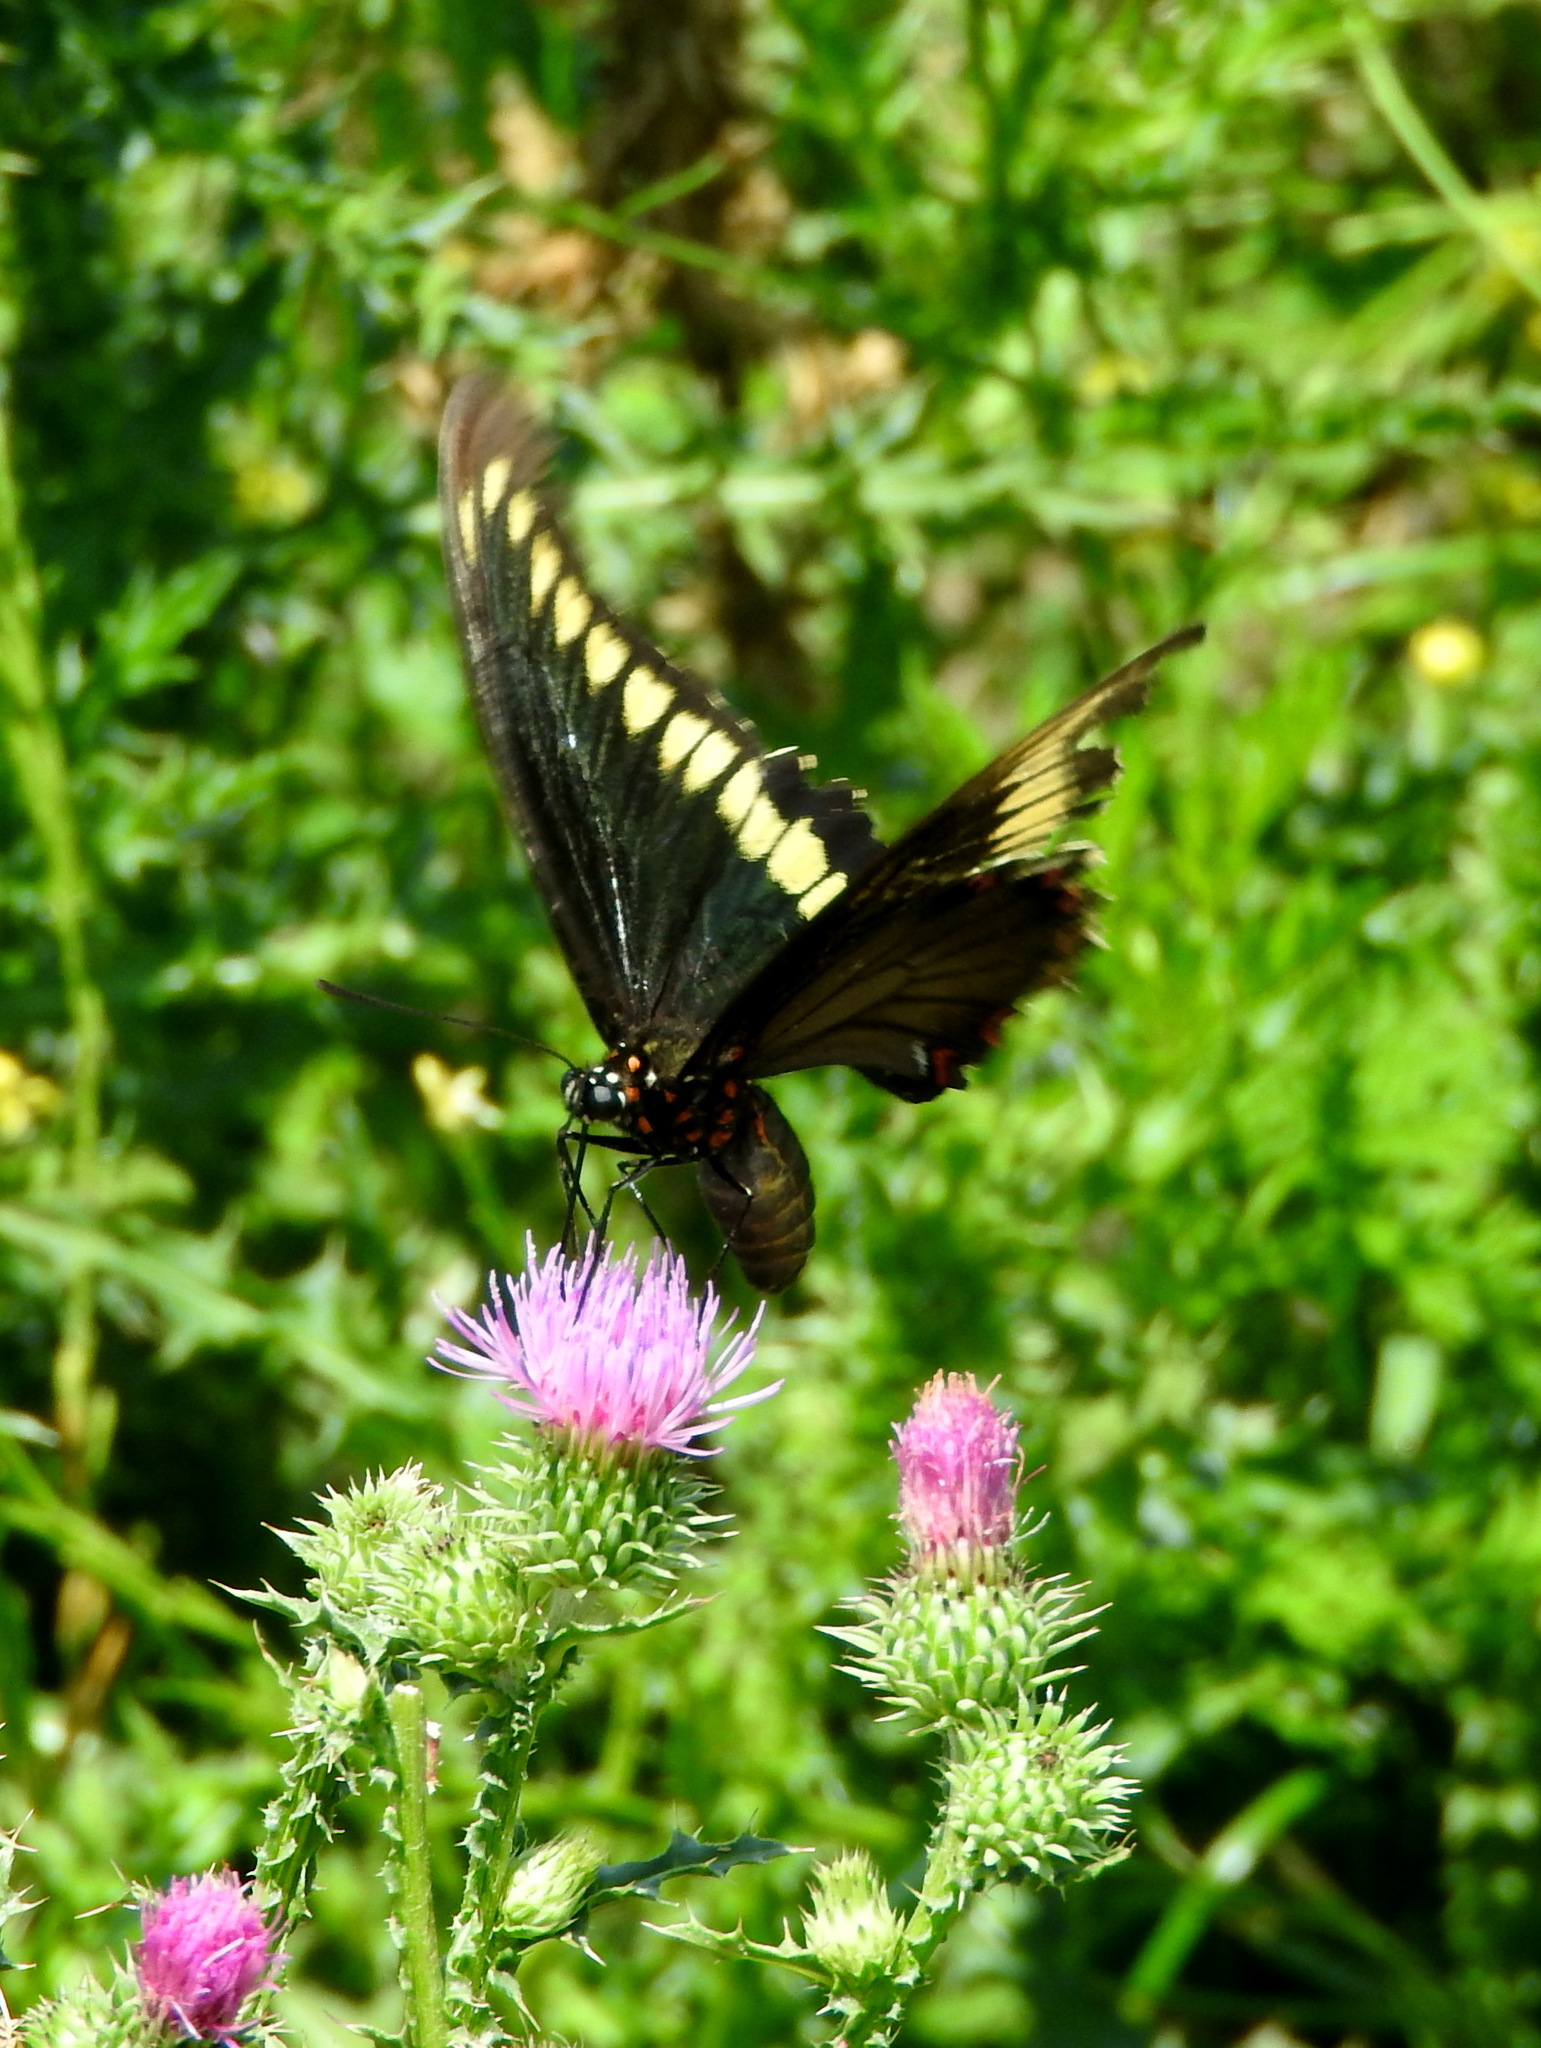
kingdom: Animalia
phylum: Arthropoda
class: Insecta
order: Lepidoptera
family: Papilionidae
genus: Battus
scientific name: Battus polydamas
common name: Polydamas swallowtail
